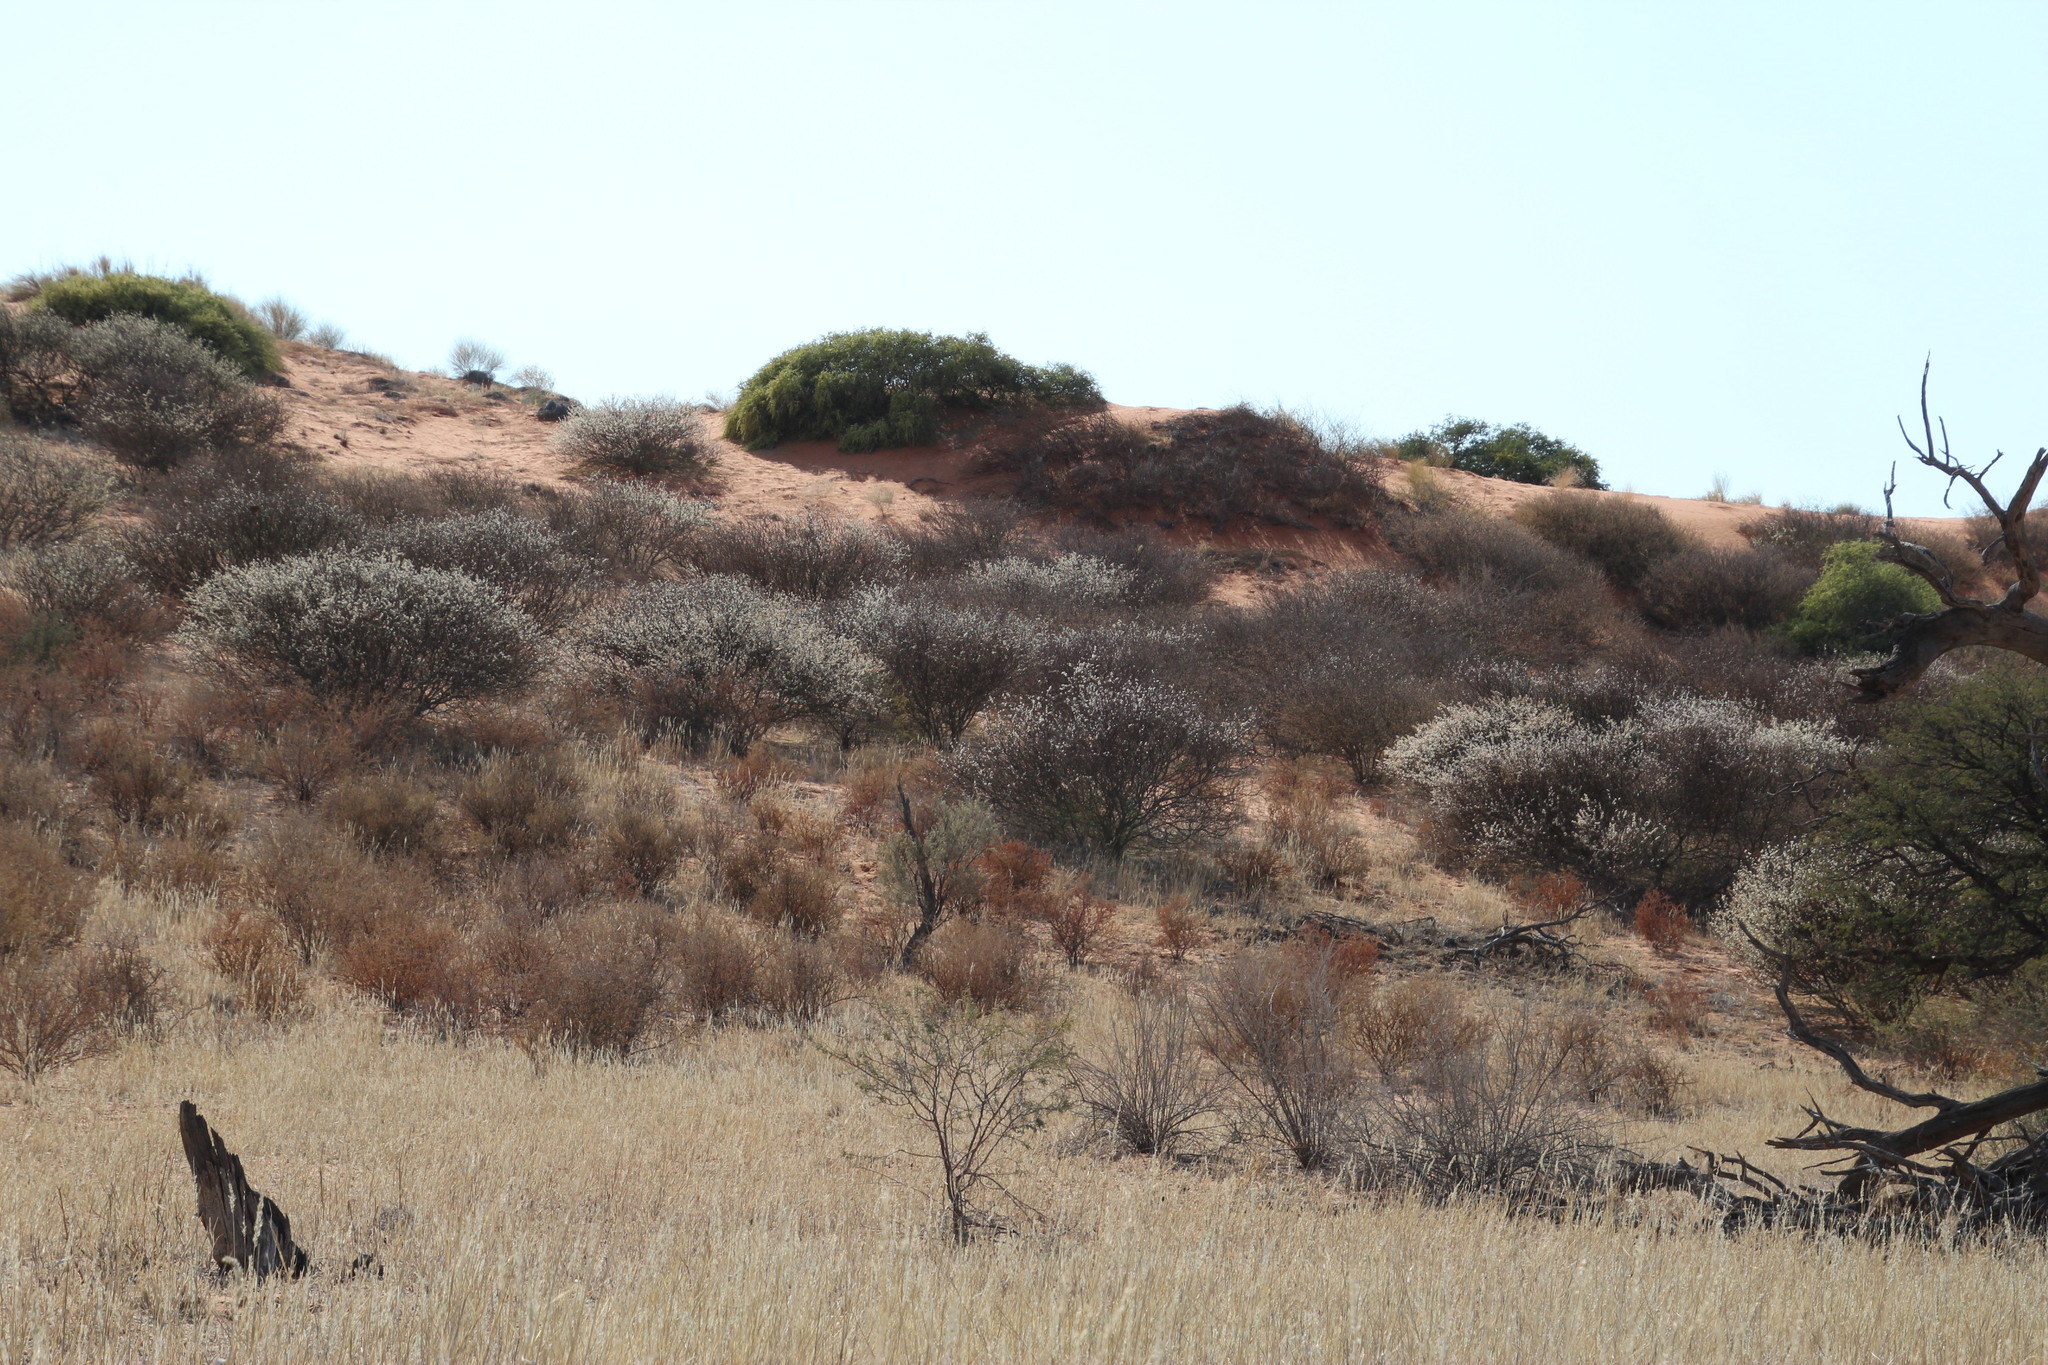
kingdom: Plantae
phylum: Tracheophyta
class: Magnoliopsida
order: Fabales
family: Fabaceae
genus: Senegalia
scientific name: Senegalia mellifera
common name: Hookthorn
